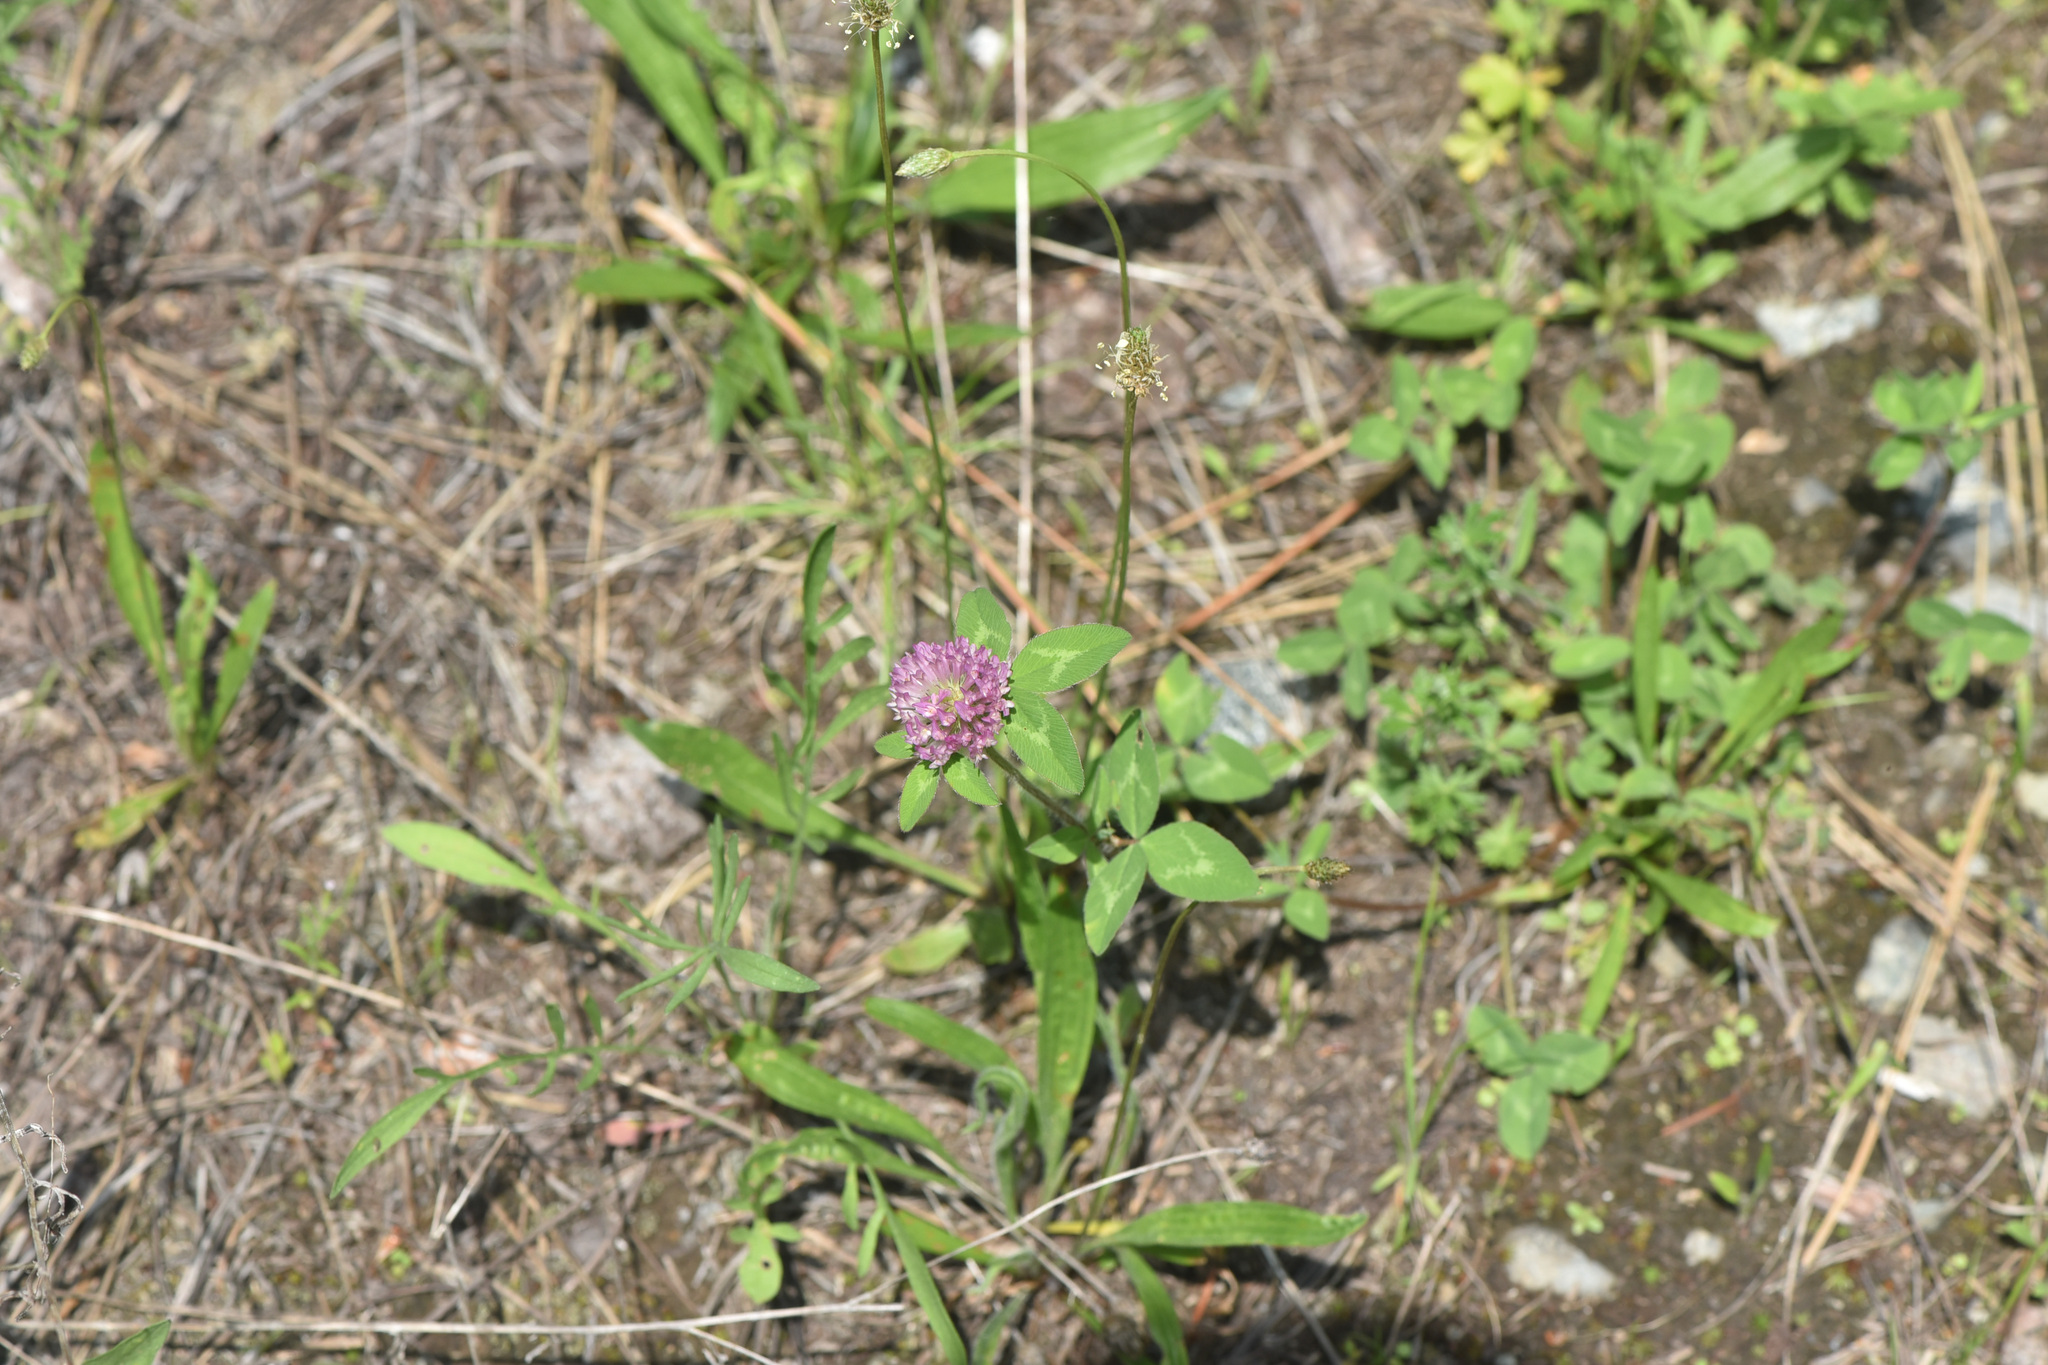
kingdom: Plantae
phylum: Tracheophyta
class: Magnoliopsida
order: Fabales
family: Fabaceae
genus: Trifolium
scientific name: Trifolium pratense
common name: Red clover
